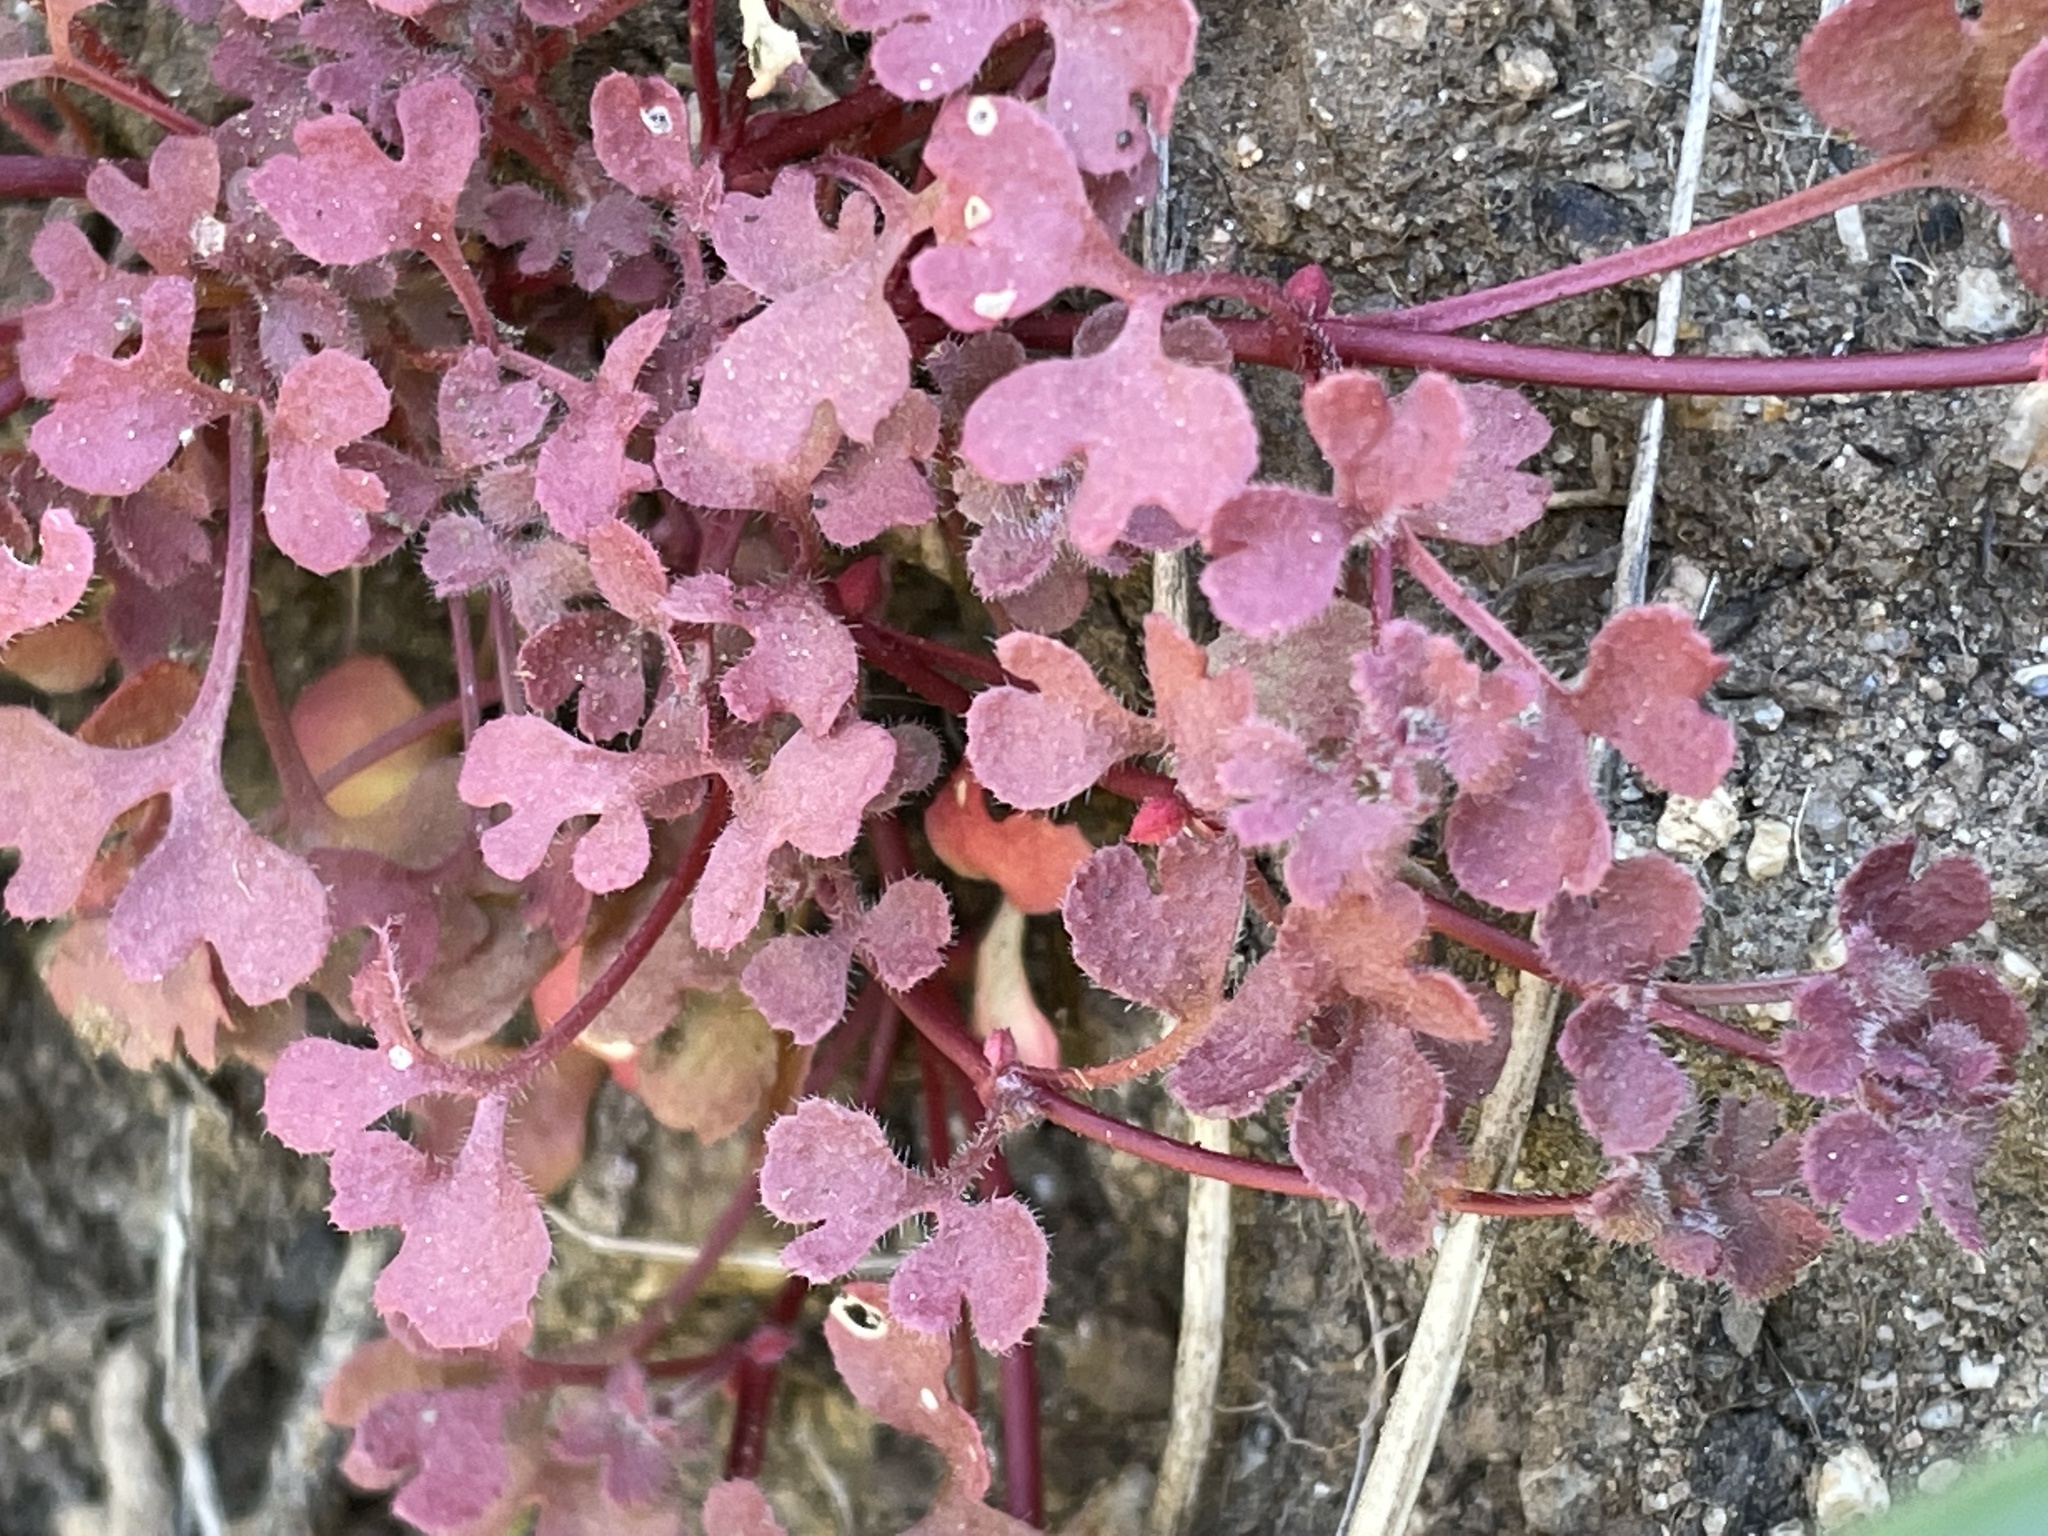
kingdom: Plantae
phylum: Tracheophyta
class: Magnoliopsida
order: Caryophyllales
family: Polygonaceae
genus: Pterostegia
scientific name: Pterostegia drymarioides
